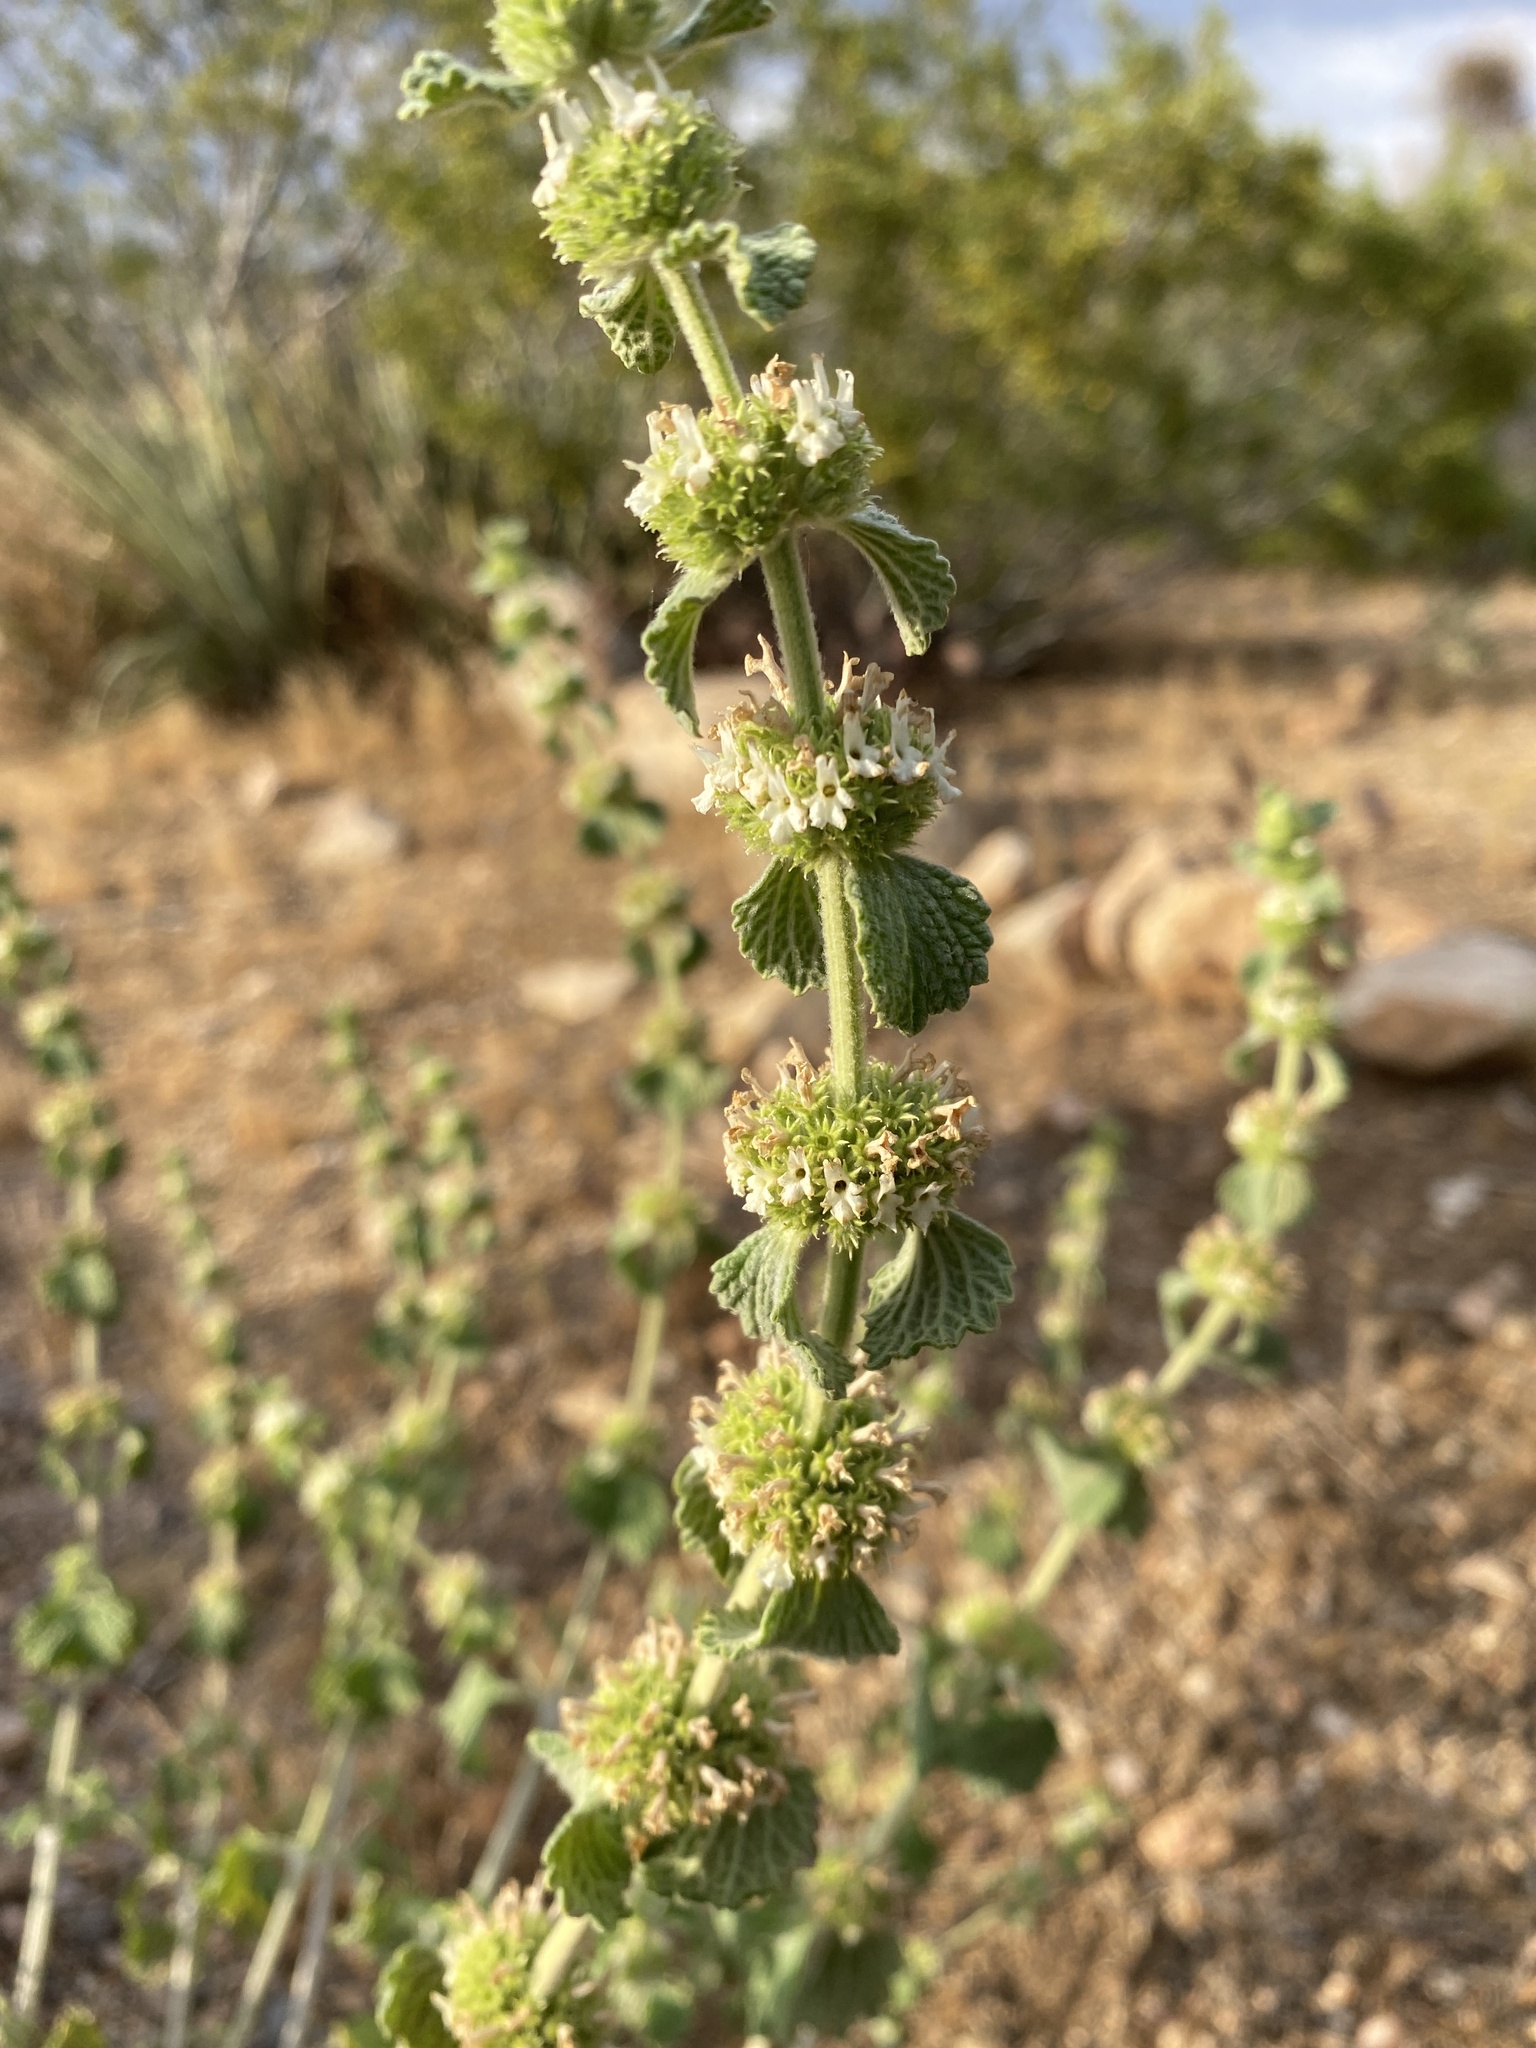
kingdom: Plantae
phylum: Tracheophyta
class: Magnoliopsida
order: Lamiales
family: Lamiaceae
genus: Marrubium
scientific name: Marrubium vulgare
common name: Horehound
